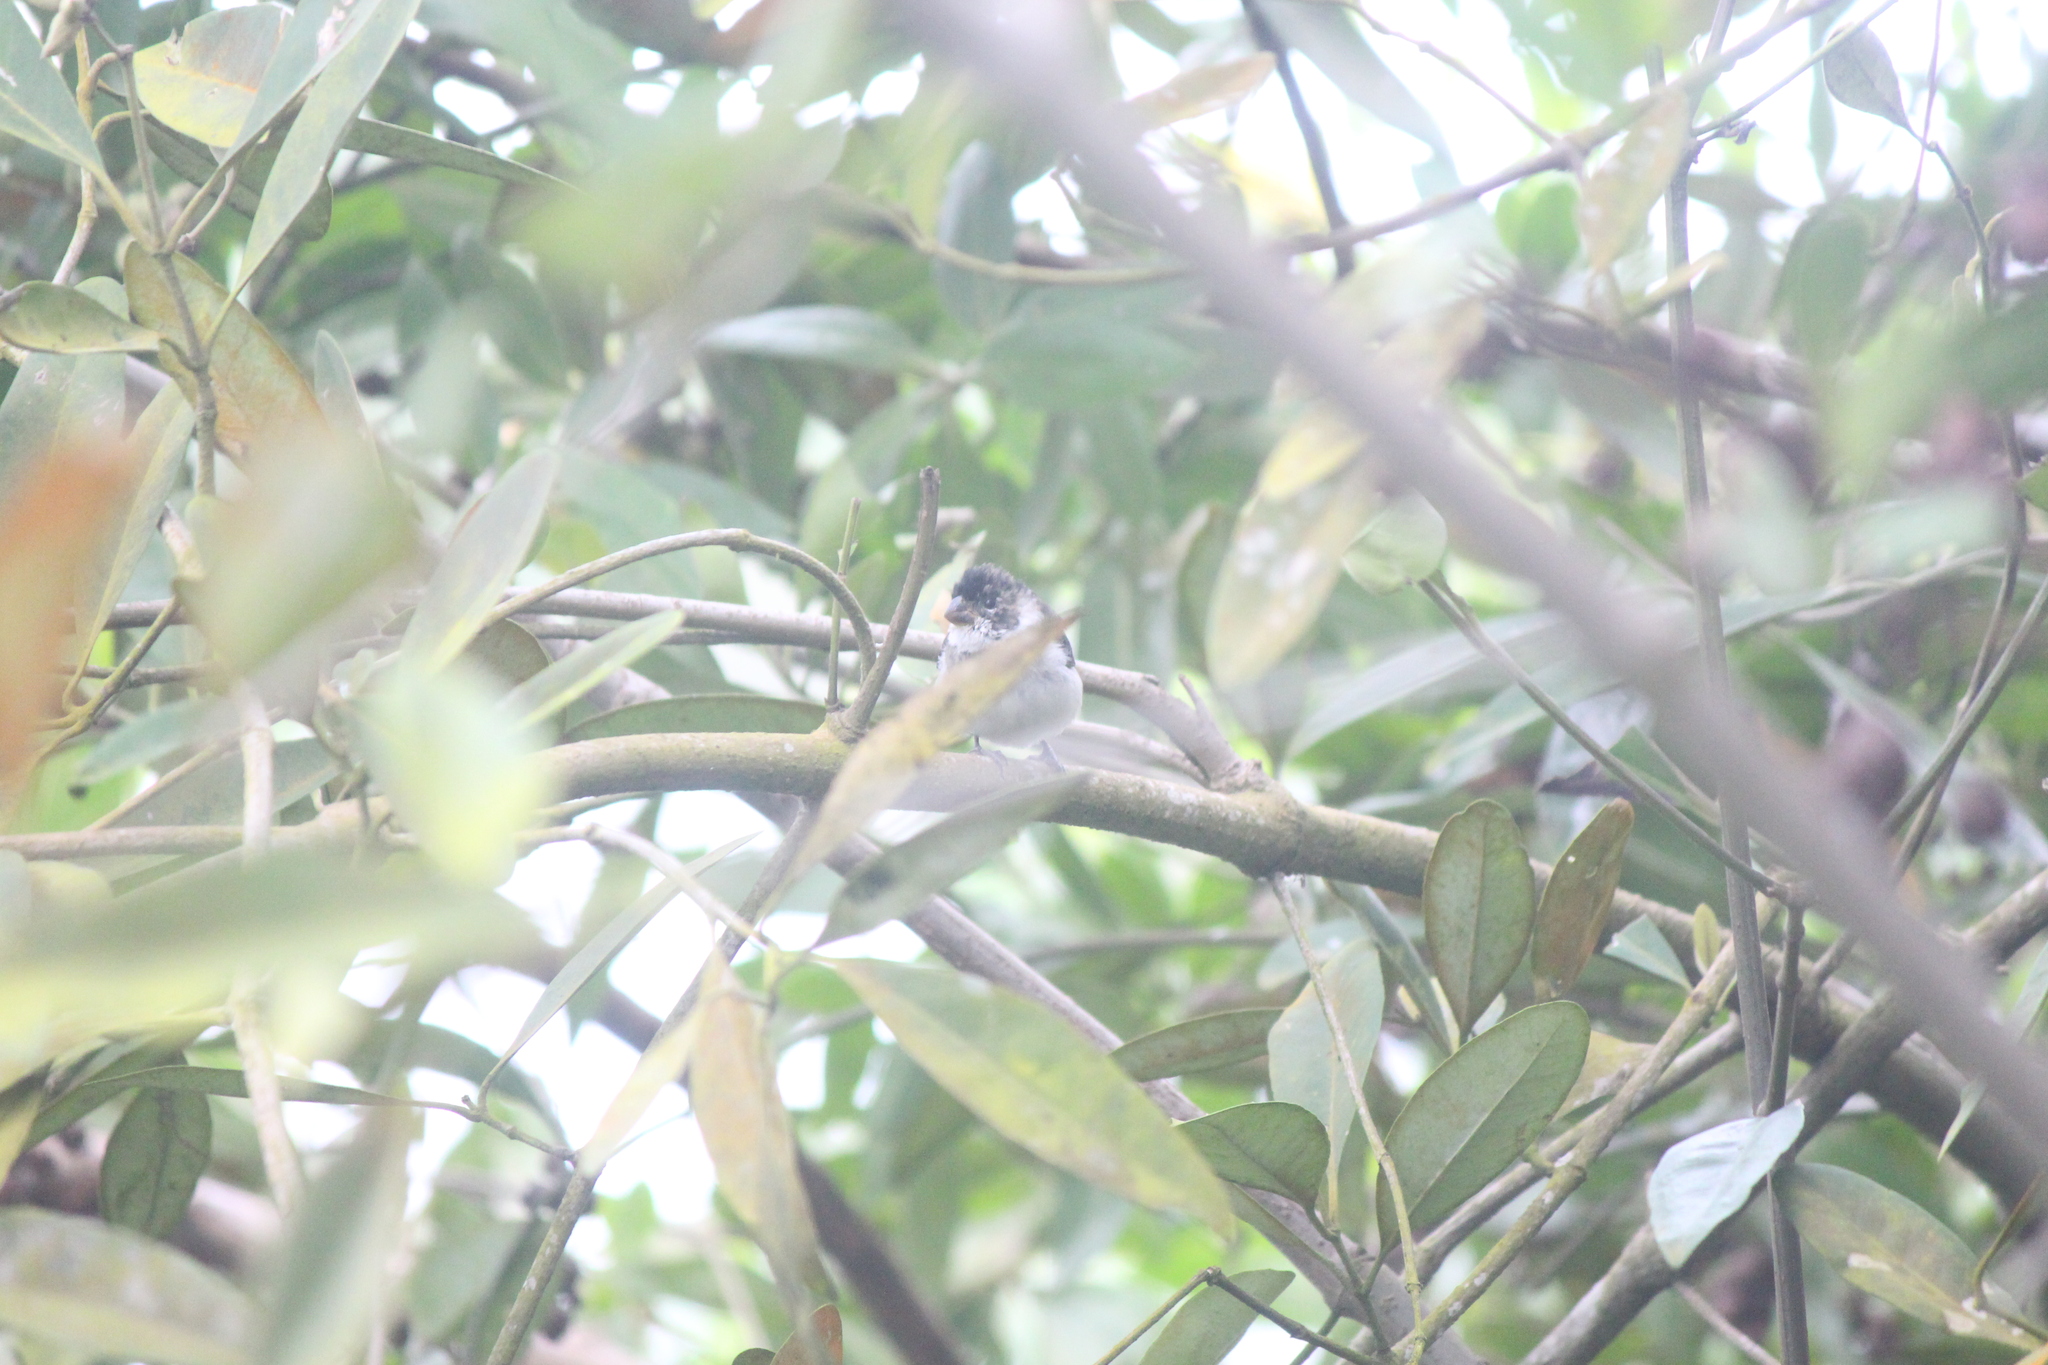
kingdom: Animalia
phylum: Chordata
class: Aves
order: Passeriformes
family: Thraupidae
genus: Sporophila
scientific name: Sporophila corvina
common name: Variable seedeater
